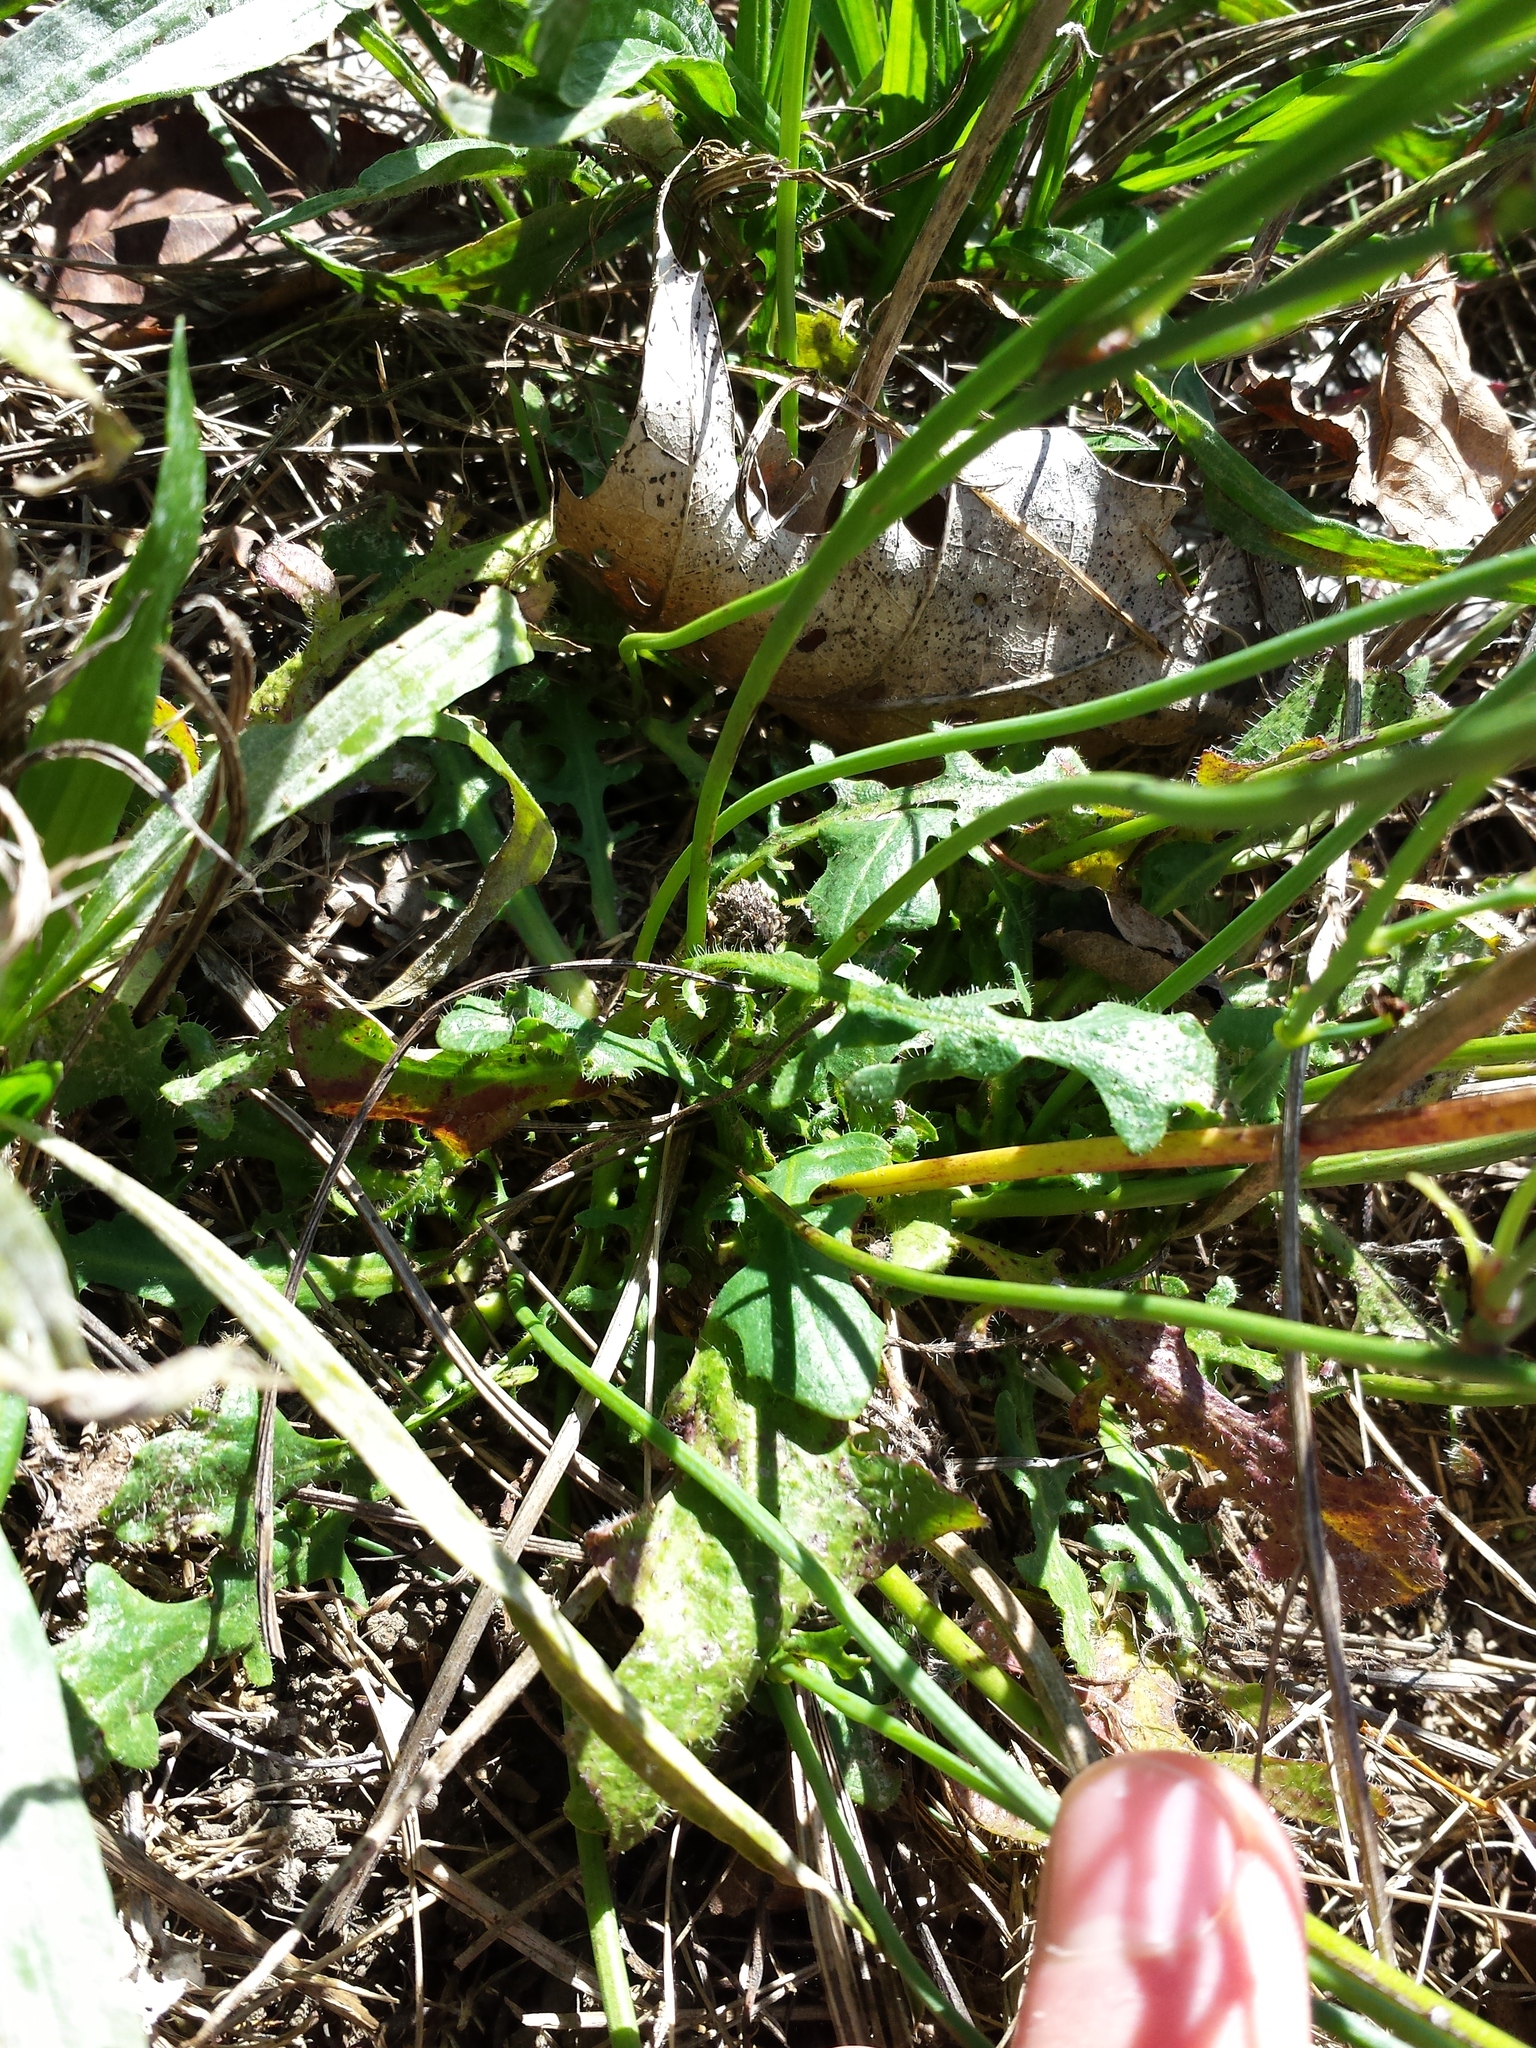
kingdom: Plantae
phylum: Tracheophyta
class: Magnoliopsida
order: Asterales
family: Asteraceae
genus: Hypochaeris
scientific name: Hypochaeris radicata
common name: Flatweed
